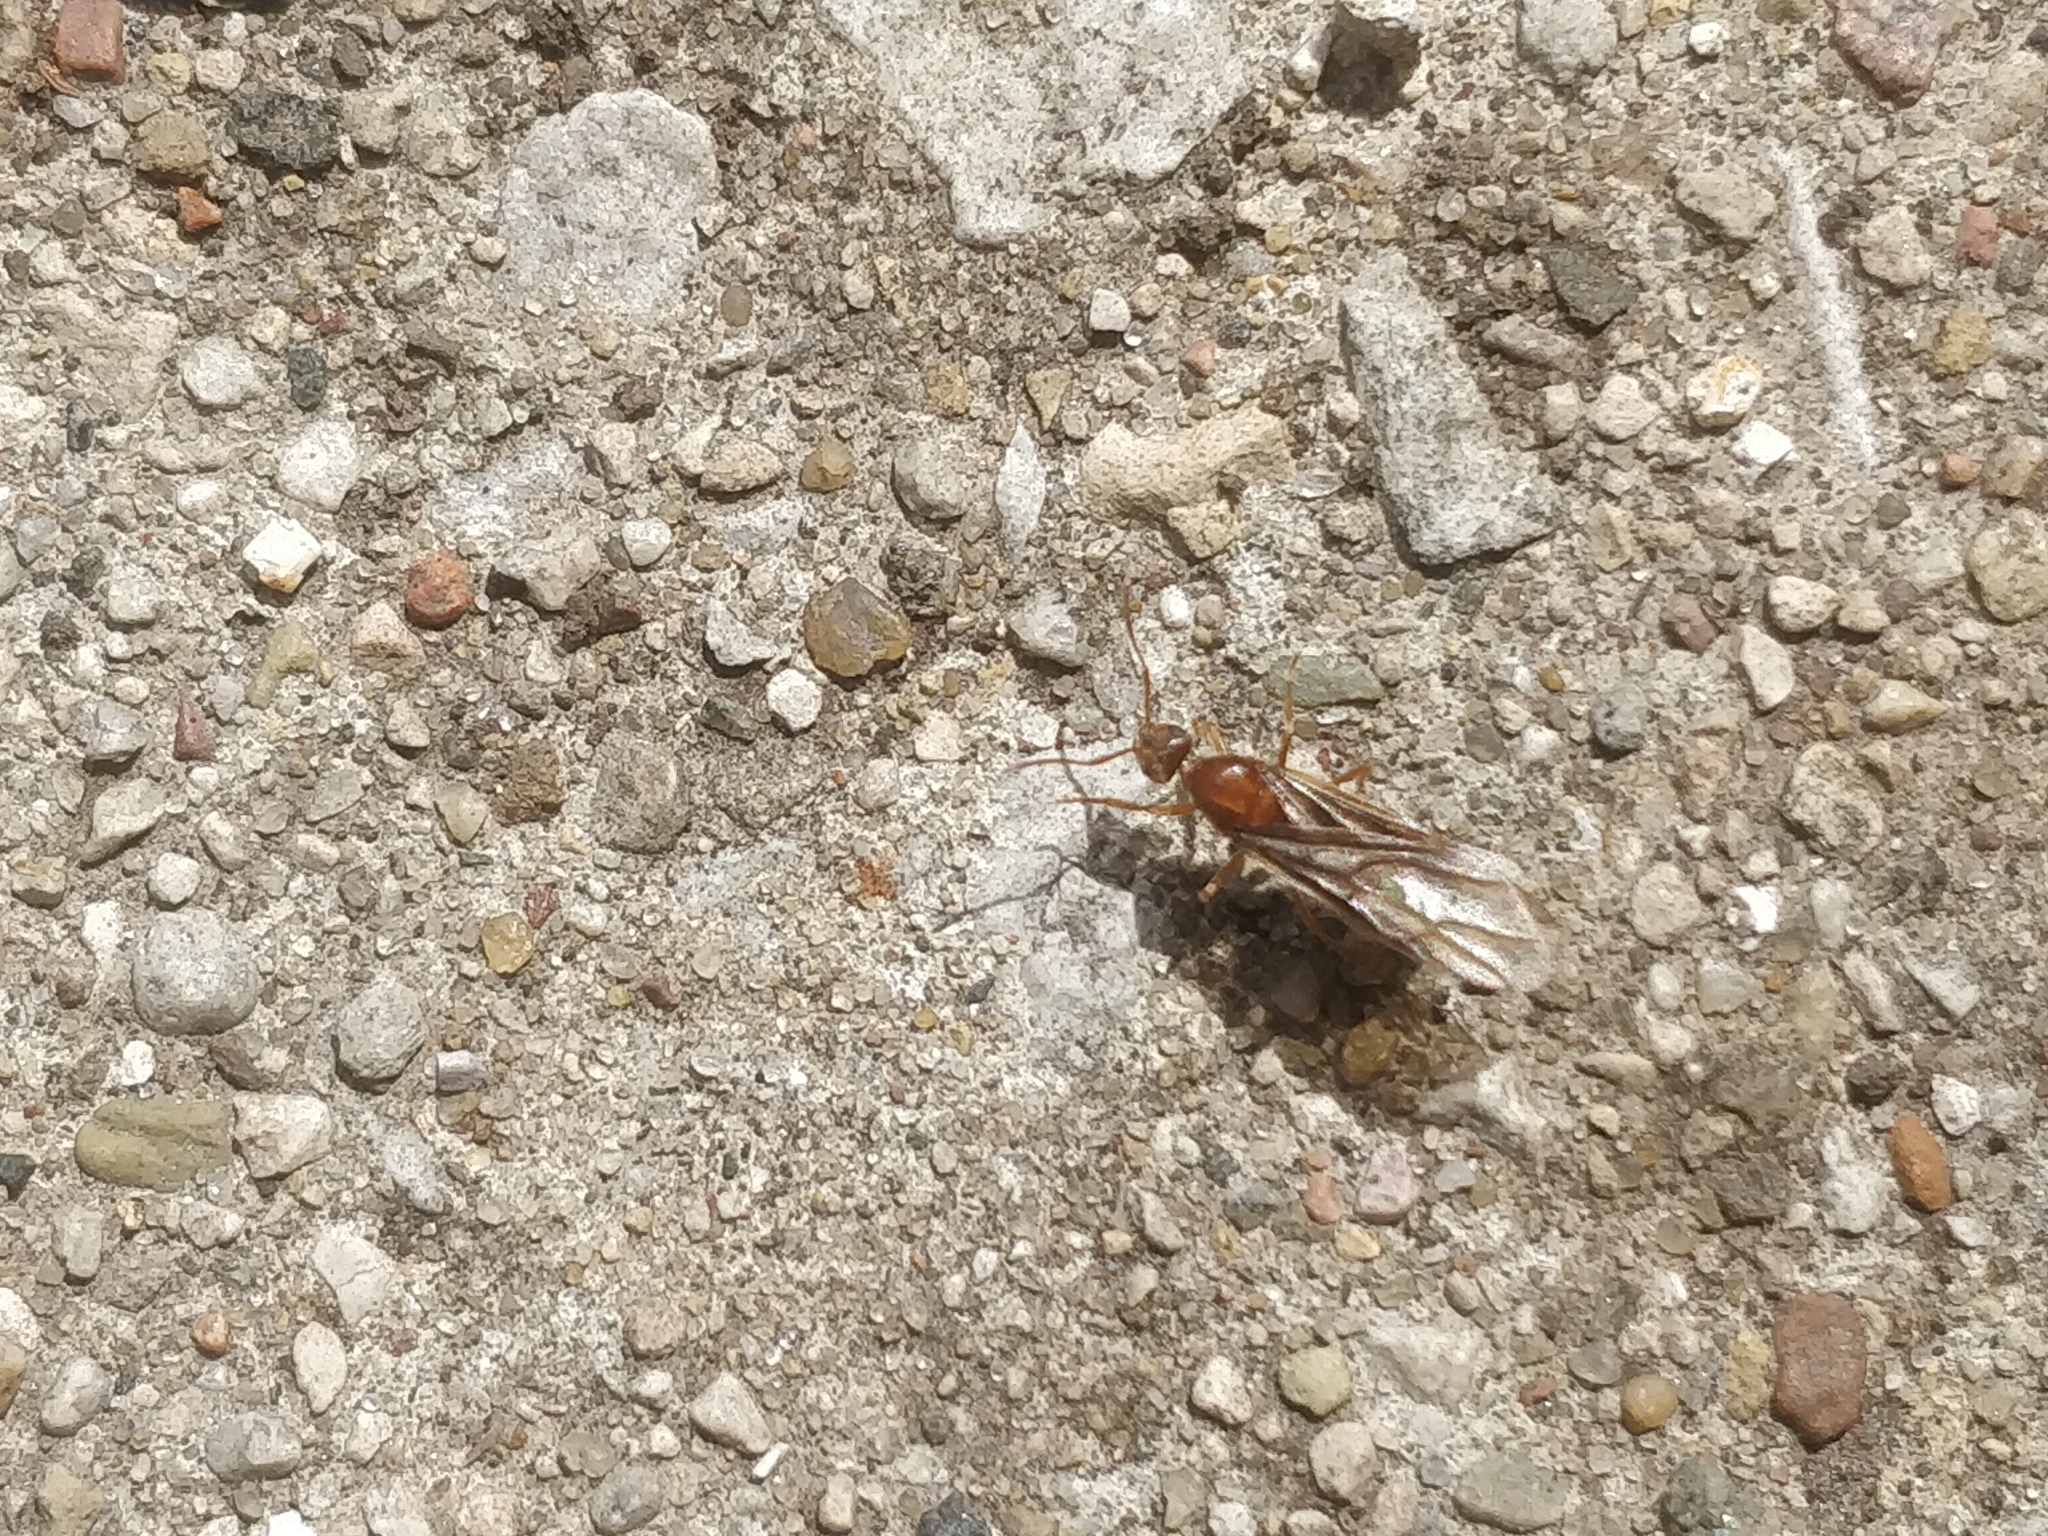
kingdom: Animalia
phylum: Arthropoda
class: Insecta
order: Hymenoptera
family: Formicidae
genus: Prenolepis
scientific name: Prenolepis imparis
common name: Small honey ant
